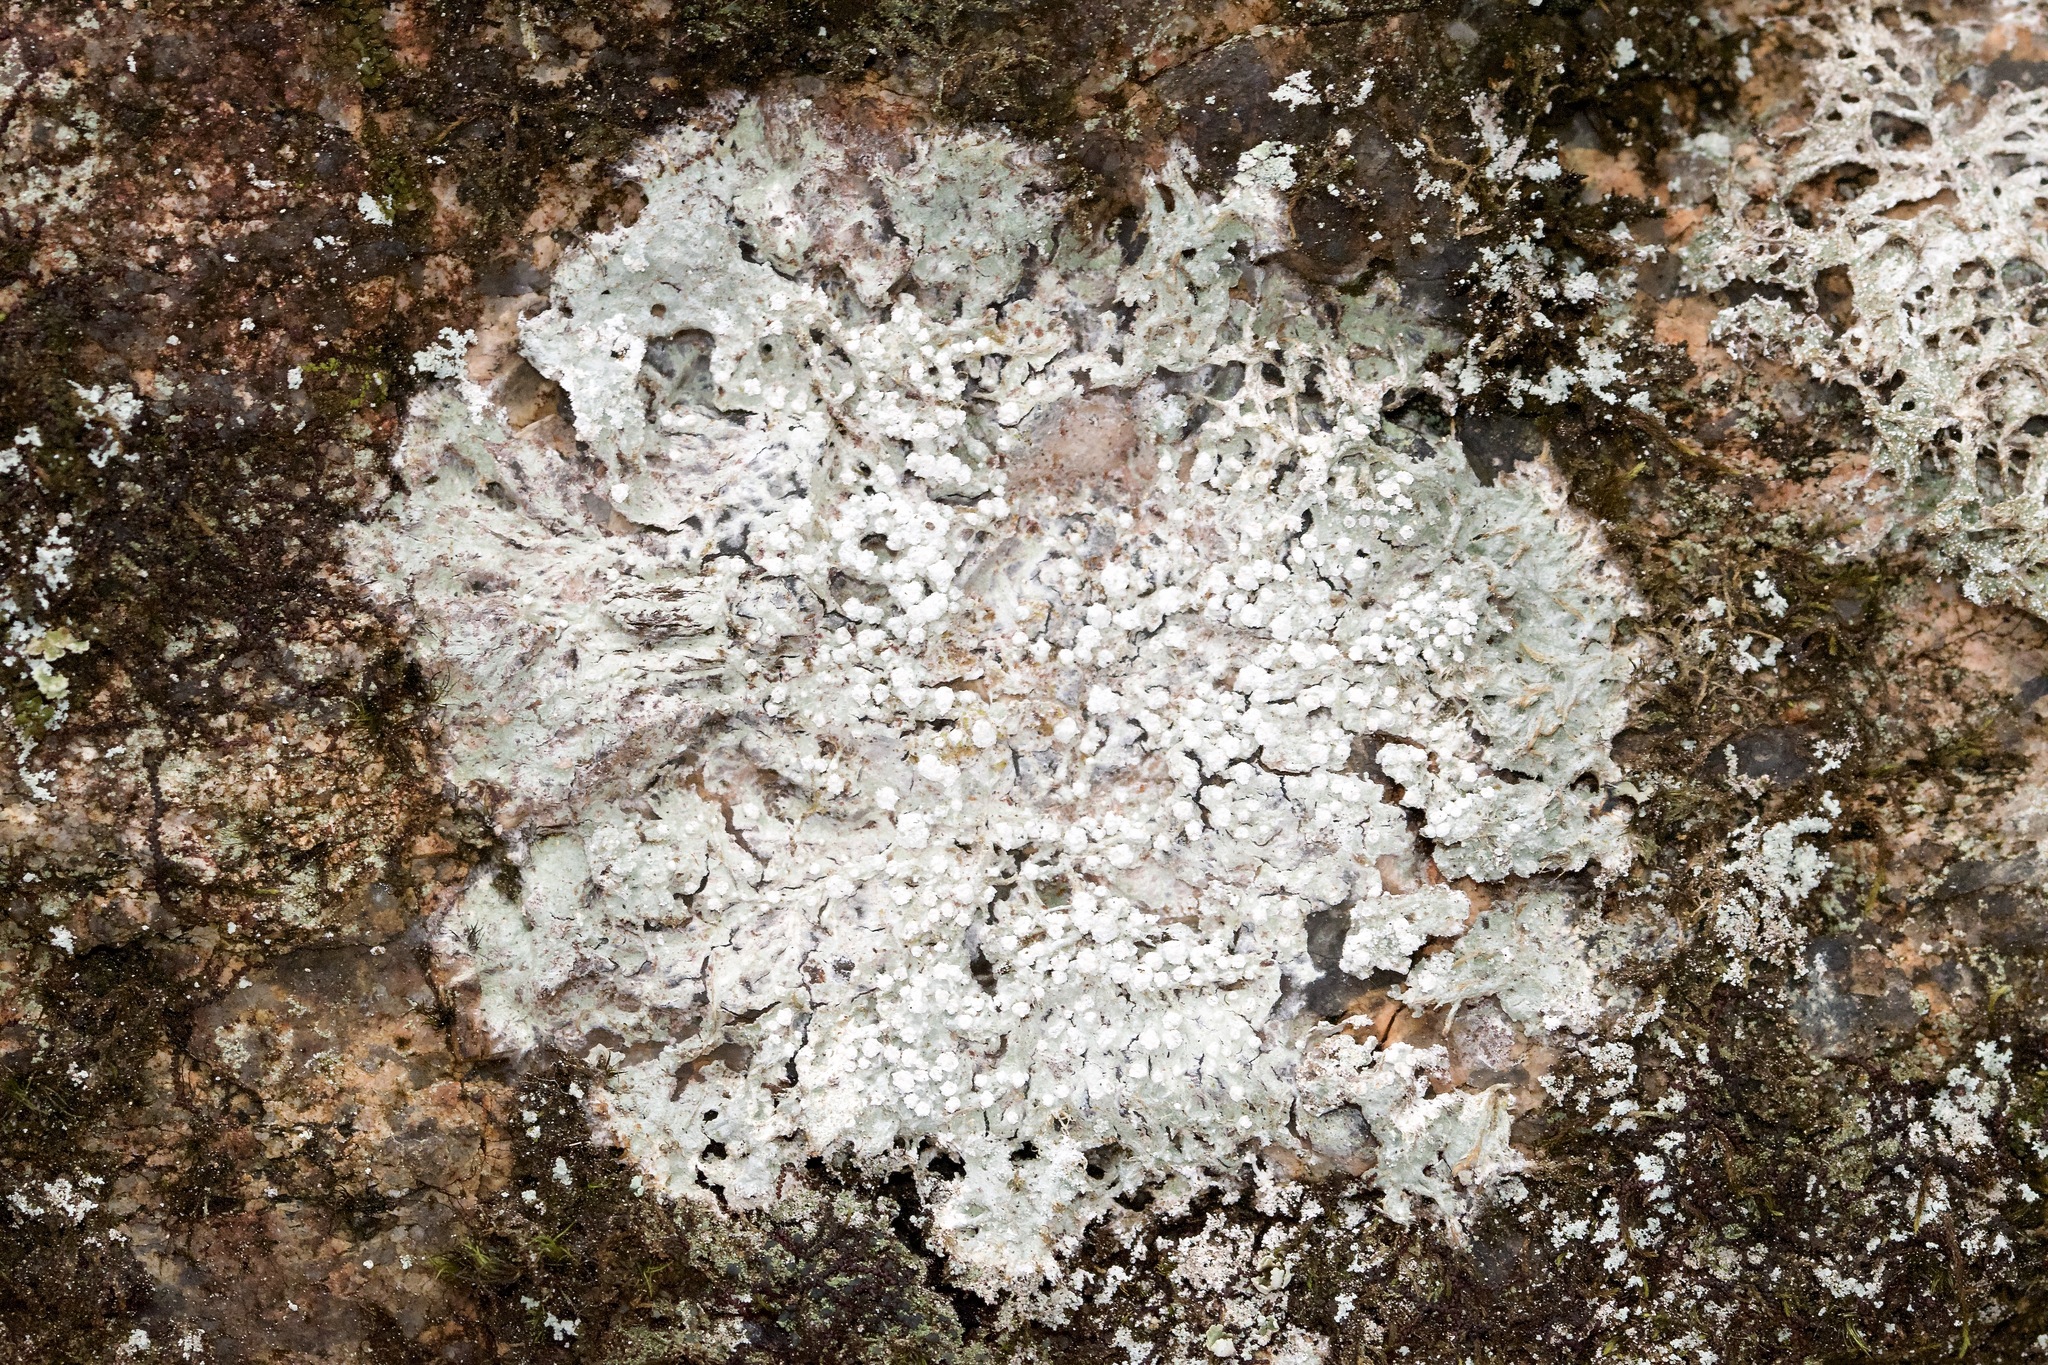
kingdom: Fungi
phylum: Ascomycota
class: Lecanoromycetes
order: Pertusariales
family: Pertusariaceae
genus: Lepra
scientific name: Lepra amara
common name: Bitter wart lichen
